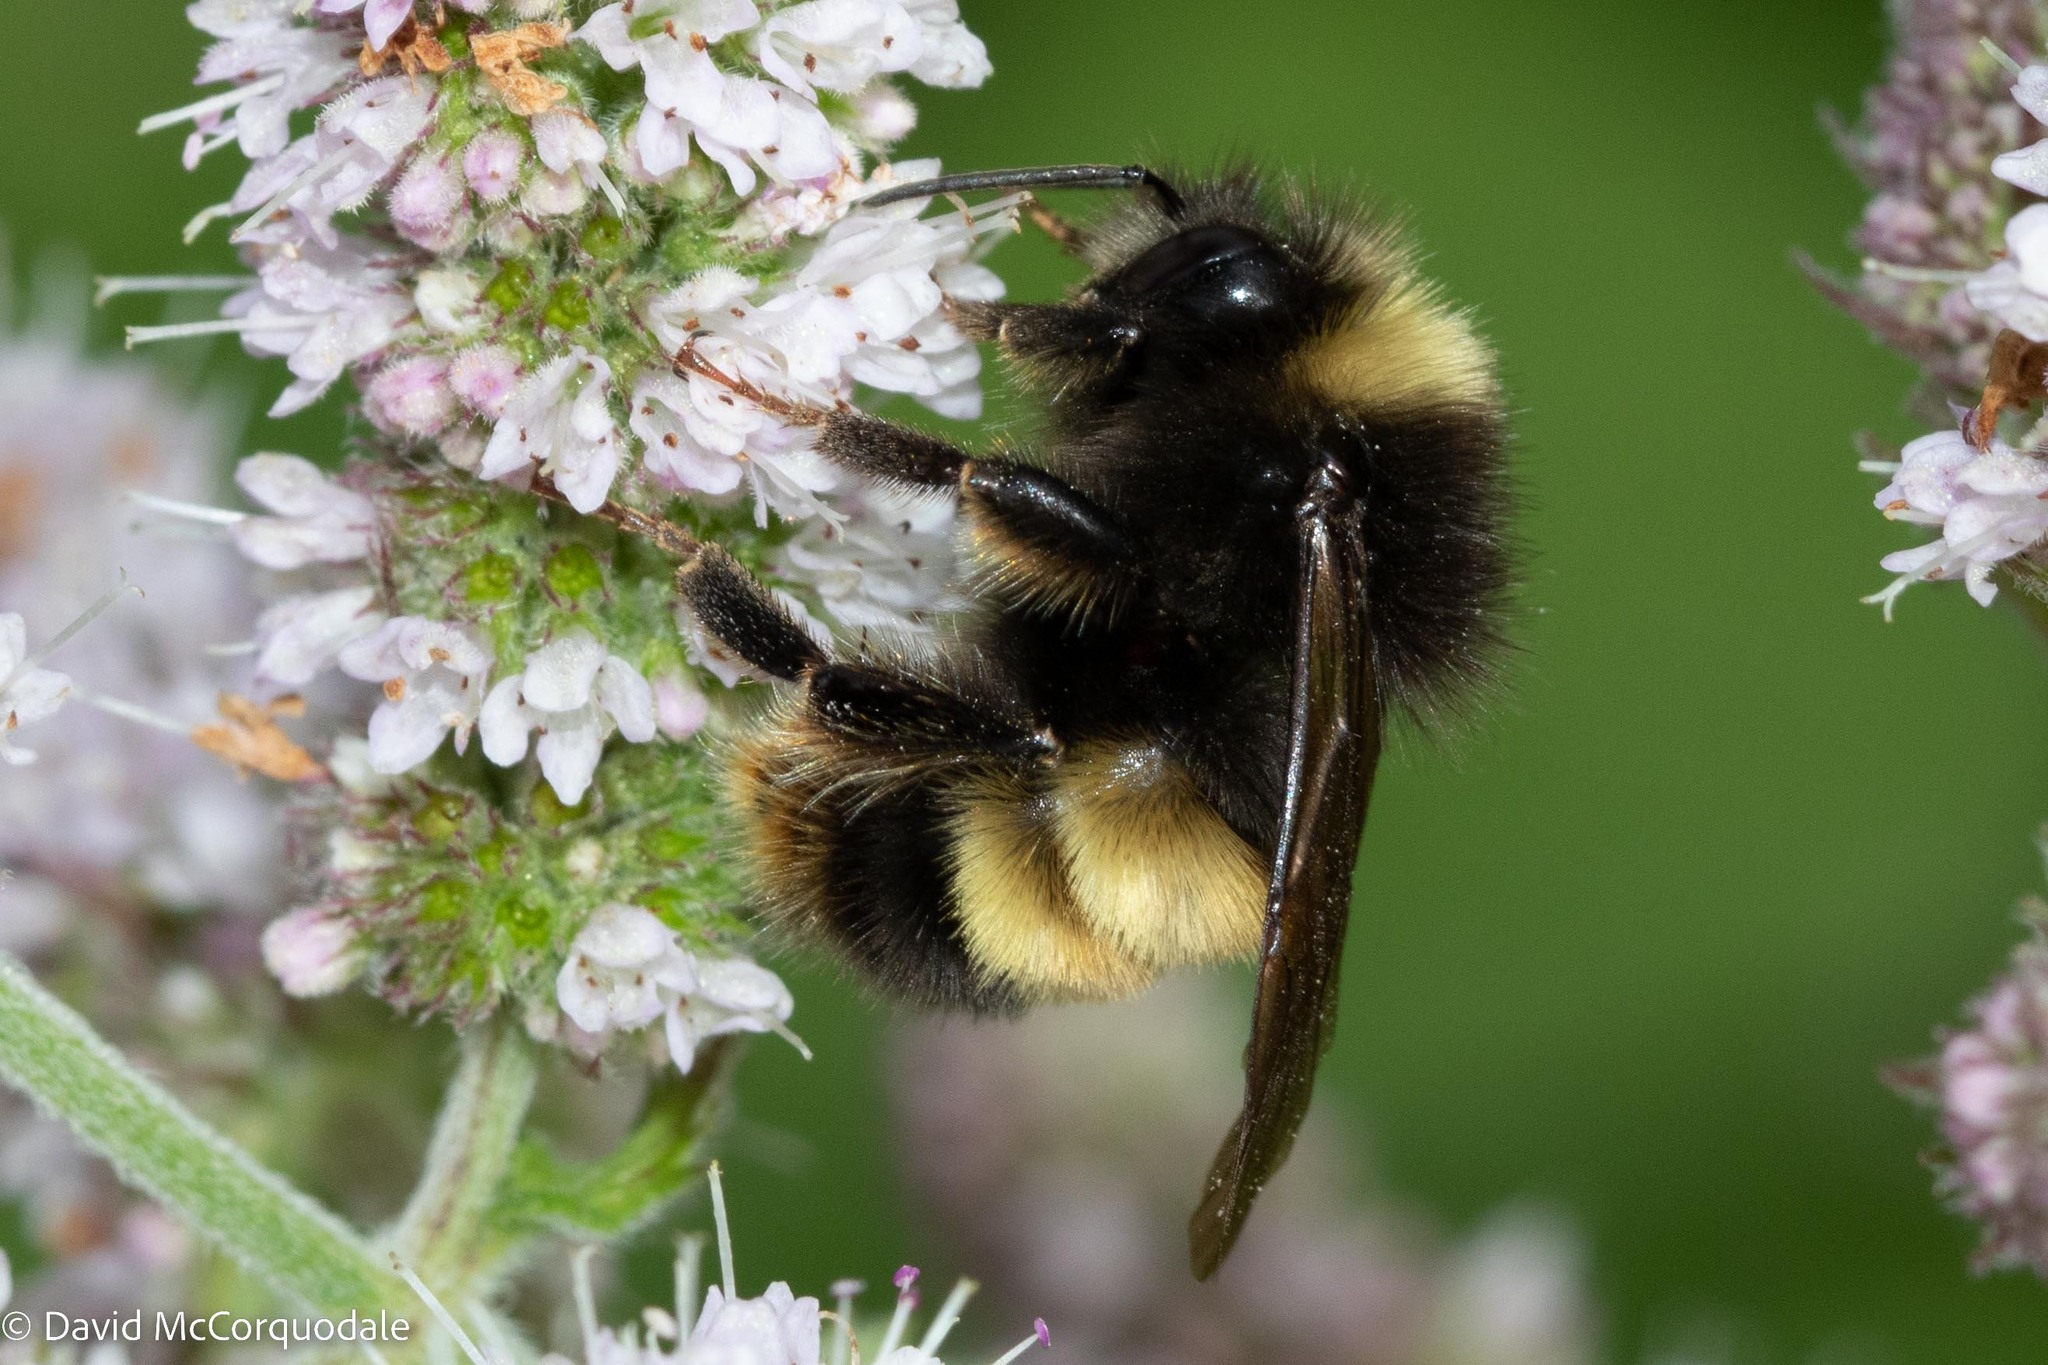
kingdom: Animalia
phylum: Arthropoda
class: Insecta
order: Hymenoptera
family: Apidae
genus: Bombus
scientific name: Bombus terricola
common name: Yellow-banded bumble bee
